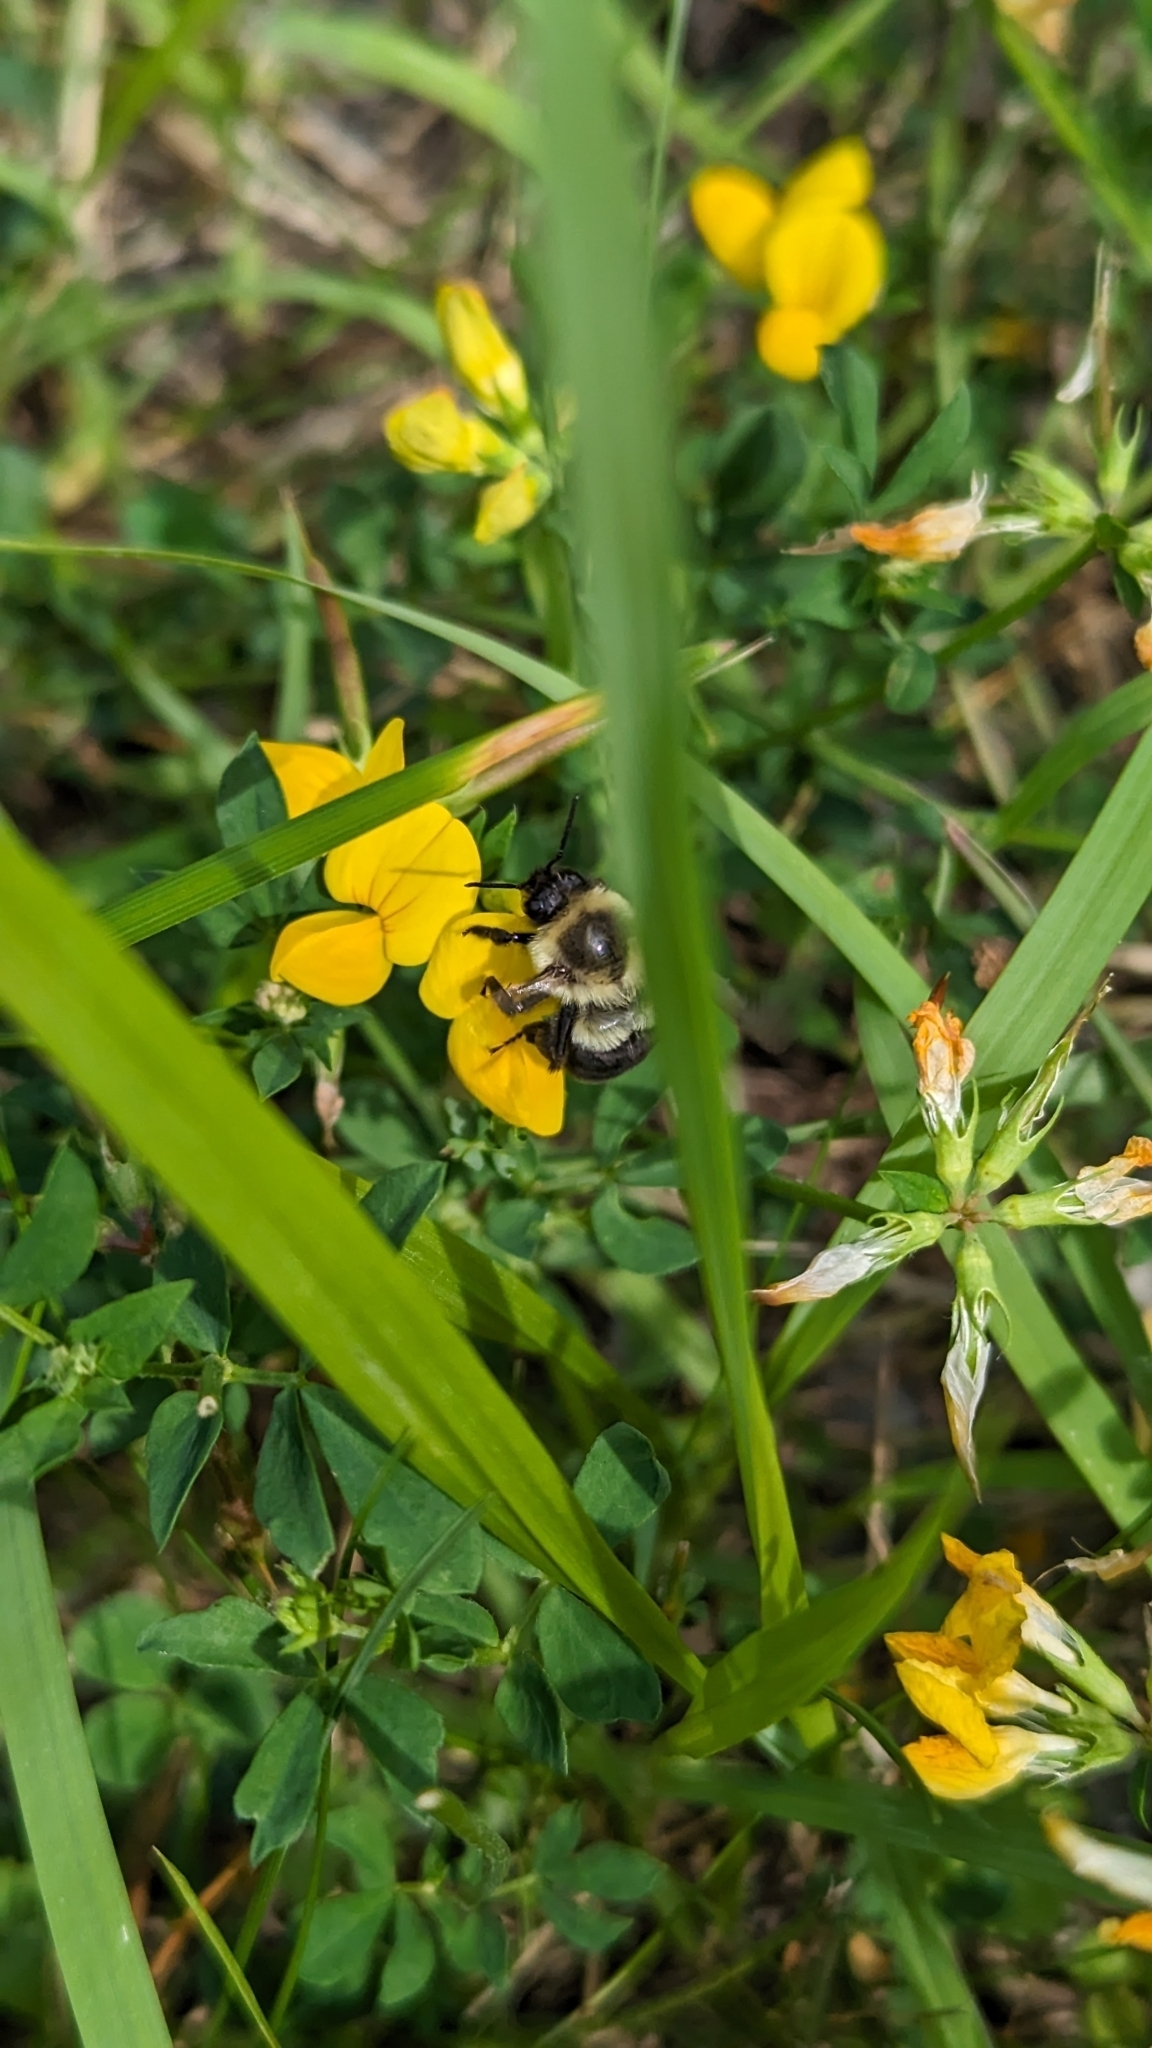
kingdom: Animalia
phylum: Arthropoda
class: Insecta
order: Hymenoptera
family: Apidae
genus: Bombus
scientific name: Bombus impatiens
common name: Common eastern bumble bee
